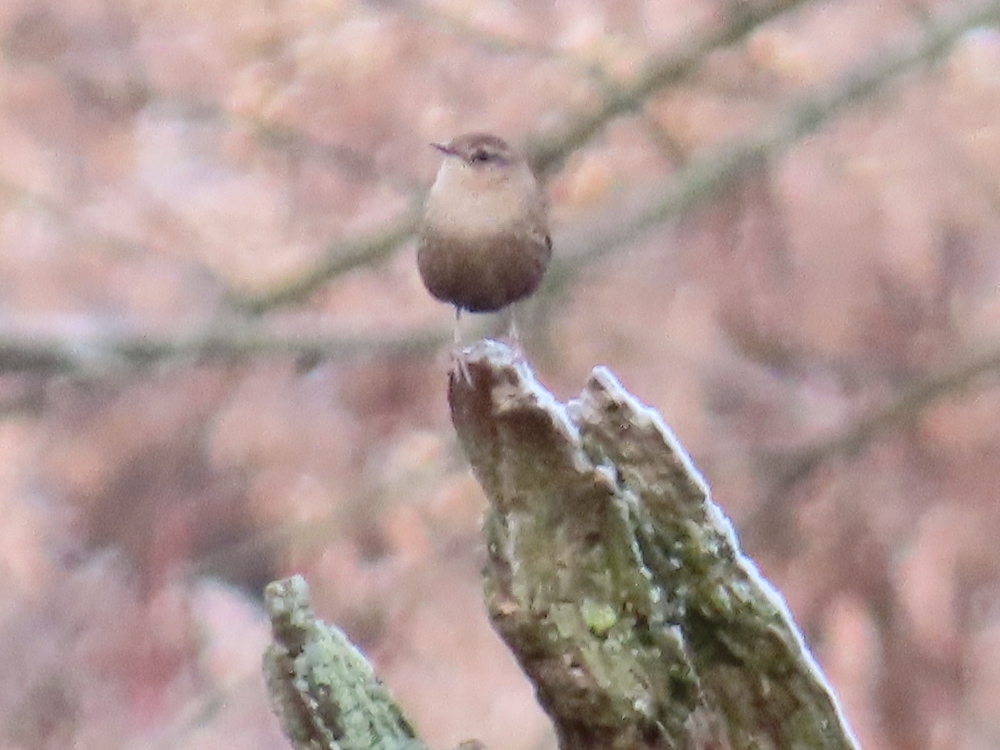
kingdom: Animalia
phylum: Chordata
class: Aves
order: Passeriformes
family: Troglodytidae
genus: Troglodytes
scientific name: Troglodytes hiemalis
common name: Winter wren
